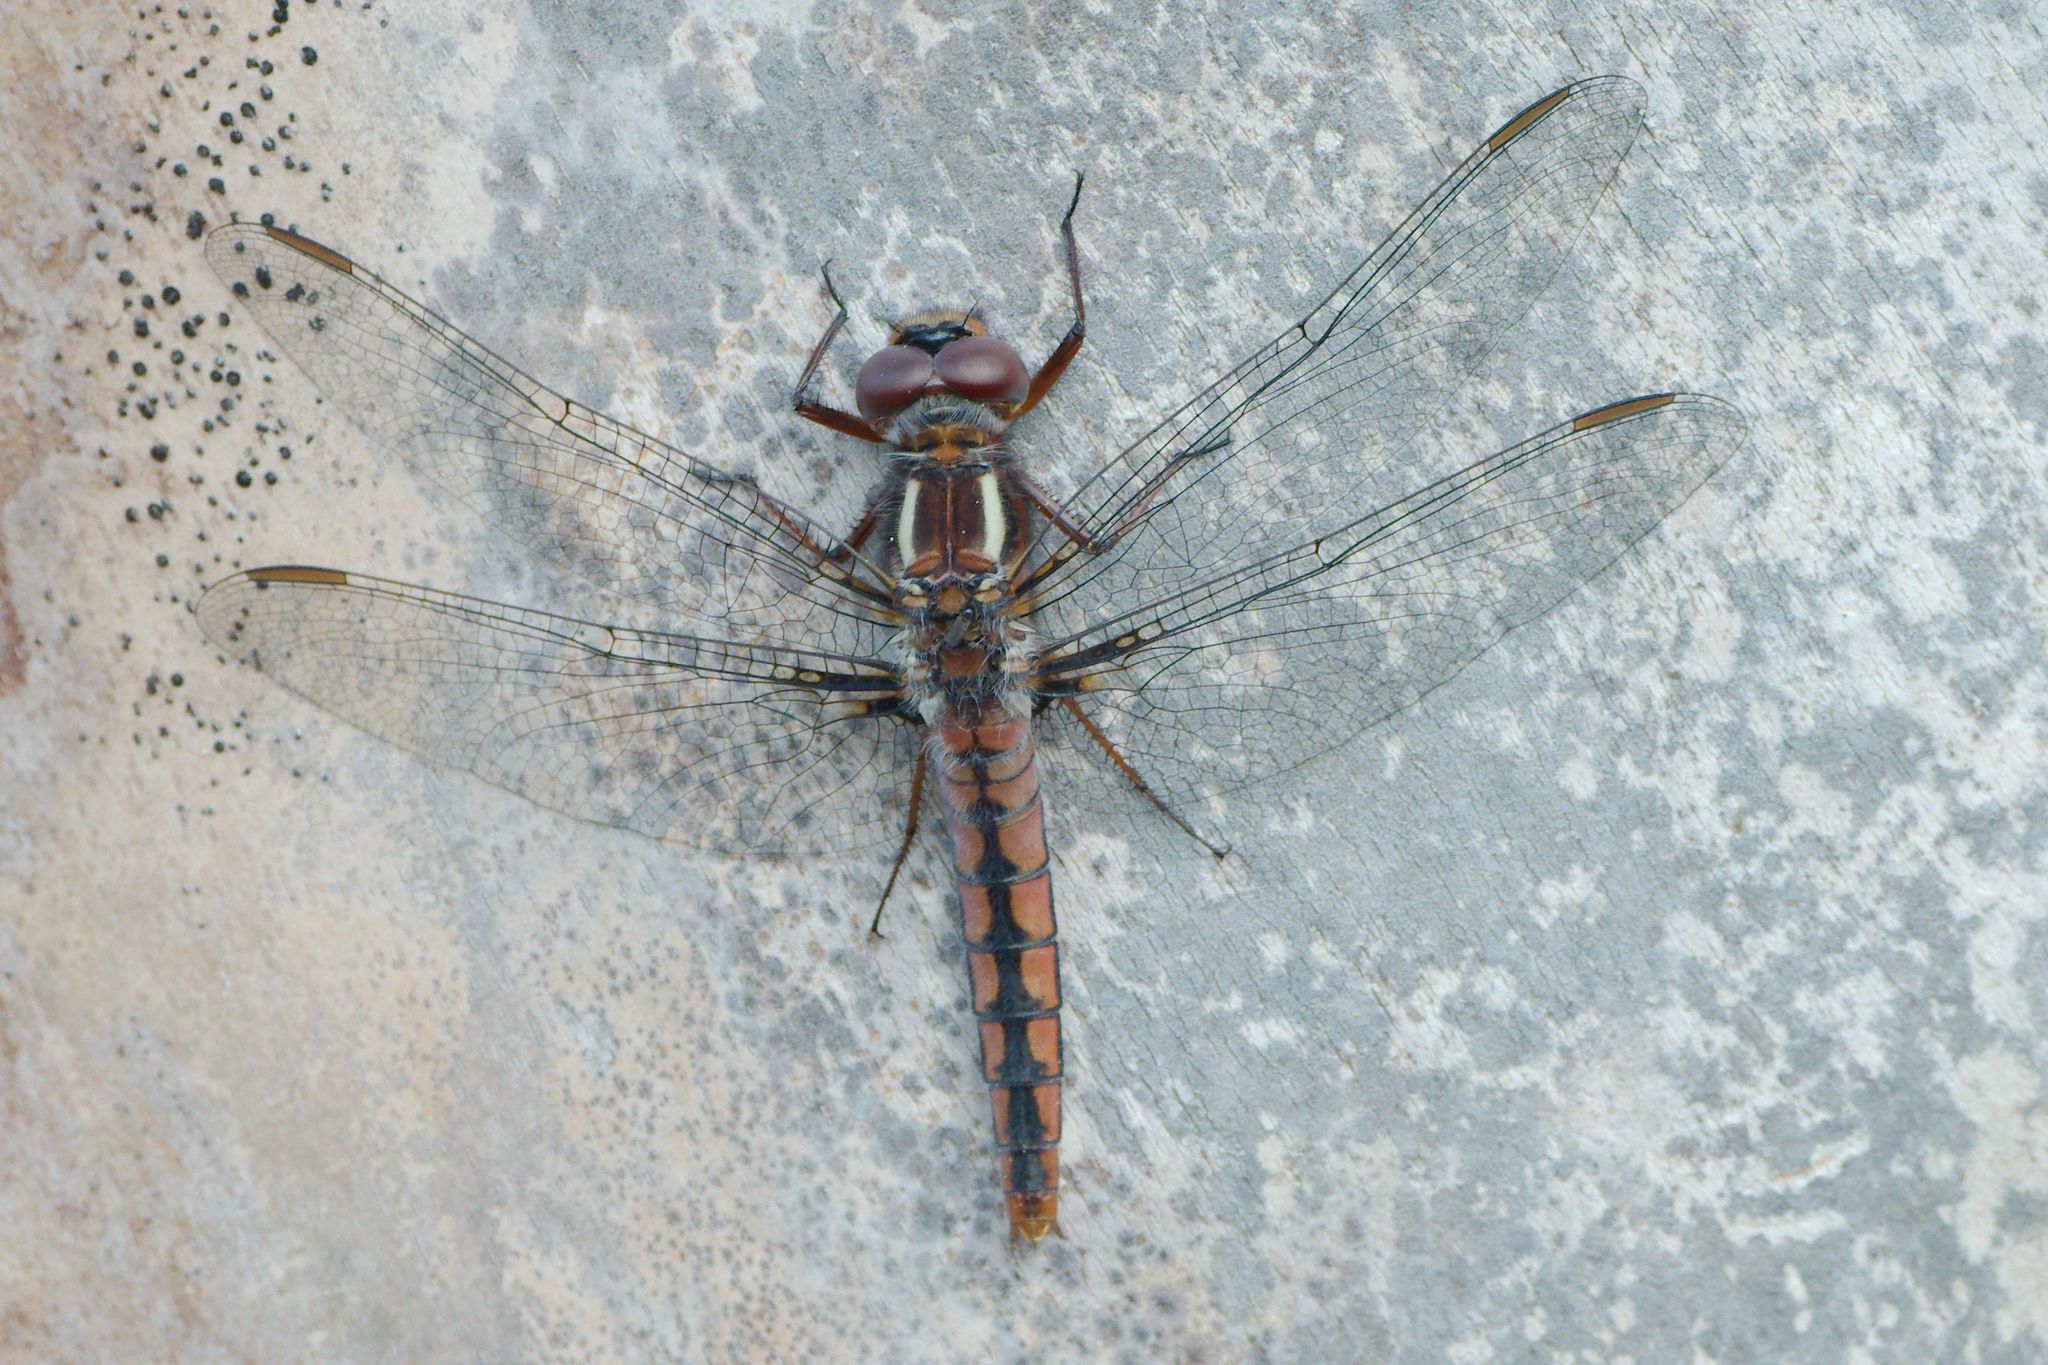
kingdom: Animalia
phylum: Arthropoda
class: Insecta
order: Odonata
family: Libellulidae
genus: Ladona
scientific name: Ladona deplanata
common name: Blue corporal
